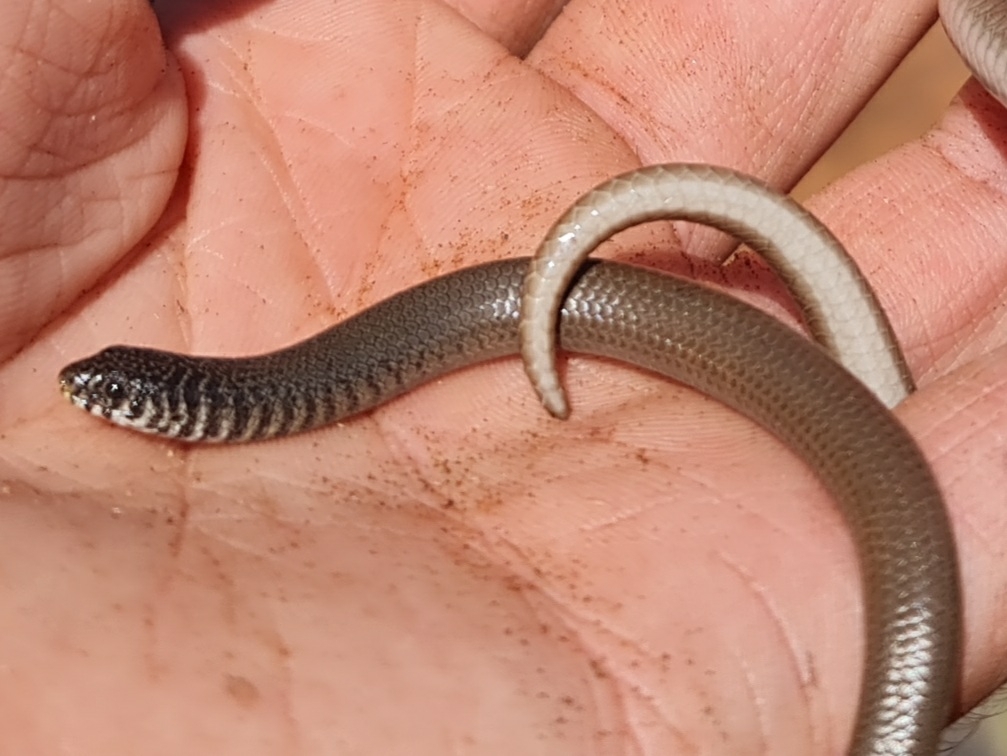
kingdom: Animalia
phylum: Chordata
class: Squamata
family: Pygopodidae
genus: Delma
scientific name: Delma australis
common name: Marble-faced delma
